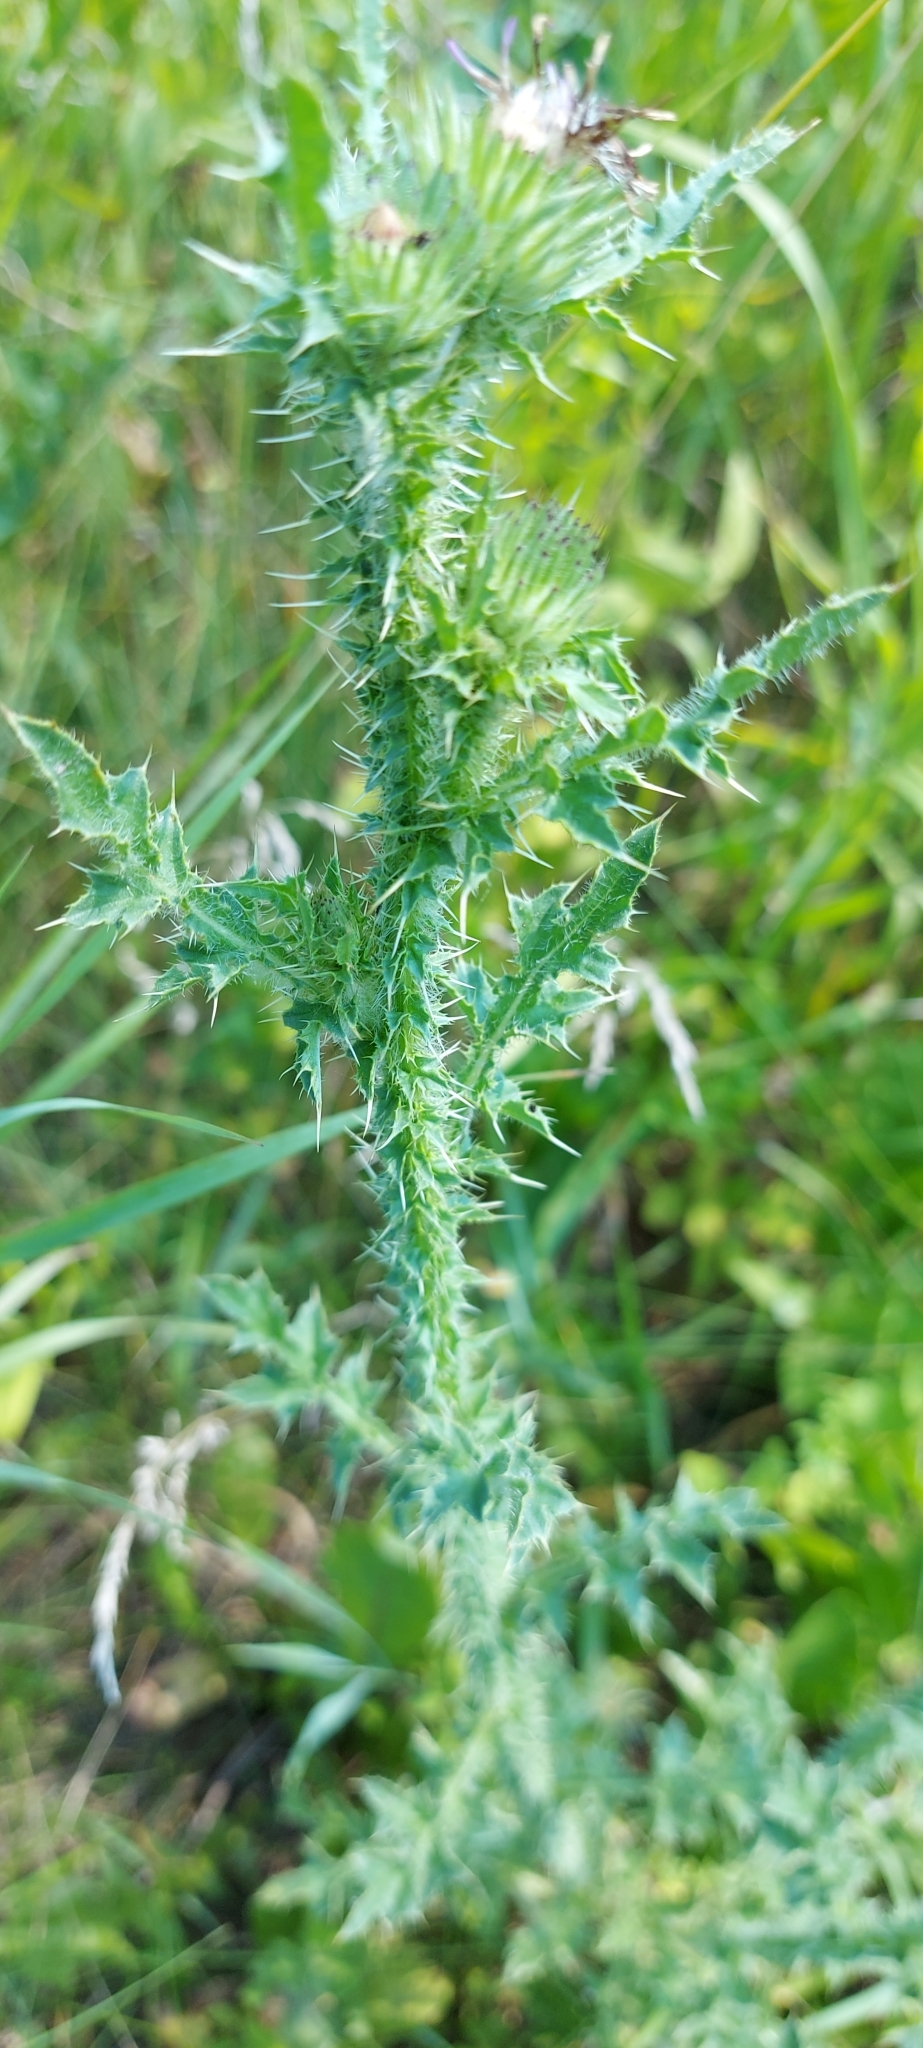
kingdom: Plantae
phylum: Tracheophyta
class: Magnoliopsida
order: Asterales
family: Asteraceae
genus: Carduus
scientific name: Carduus acanthoides
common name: Plumeless thistle
